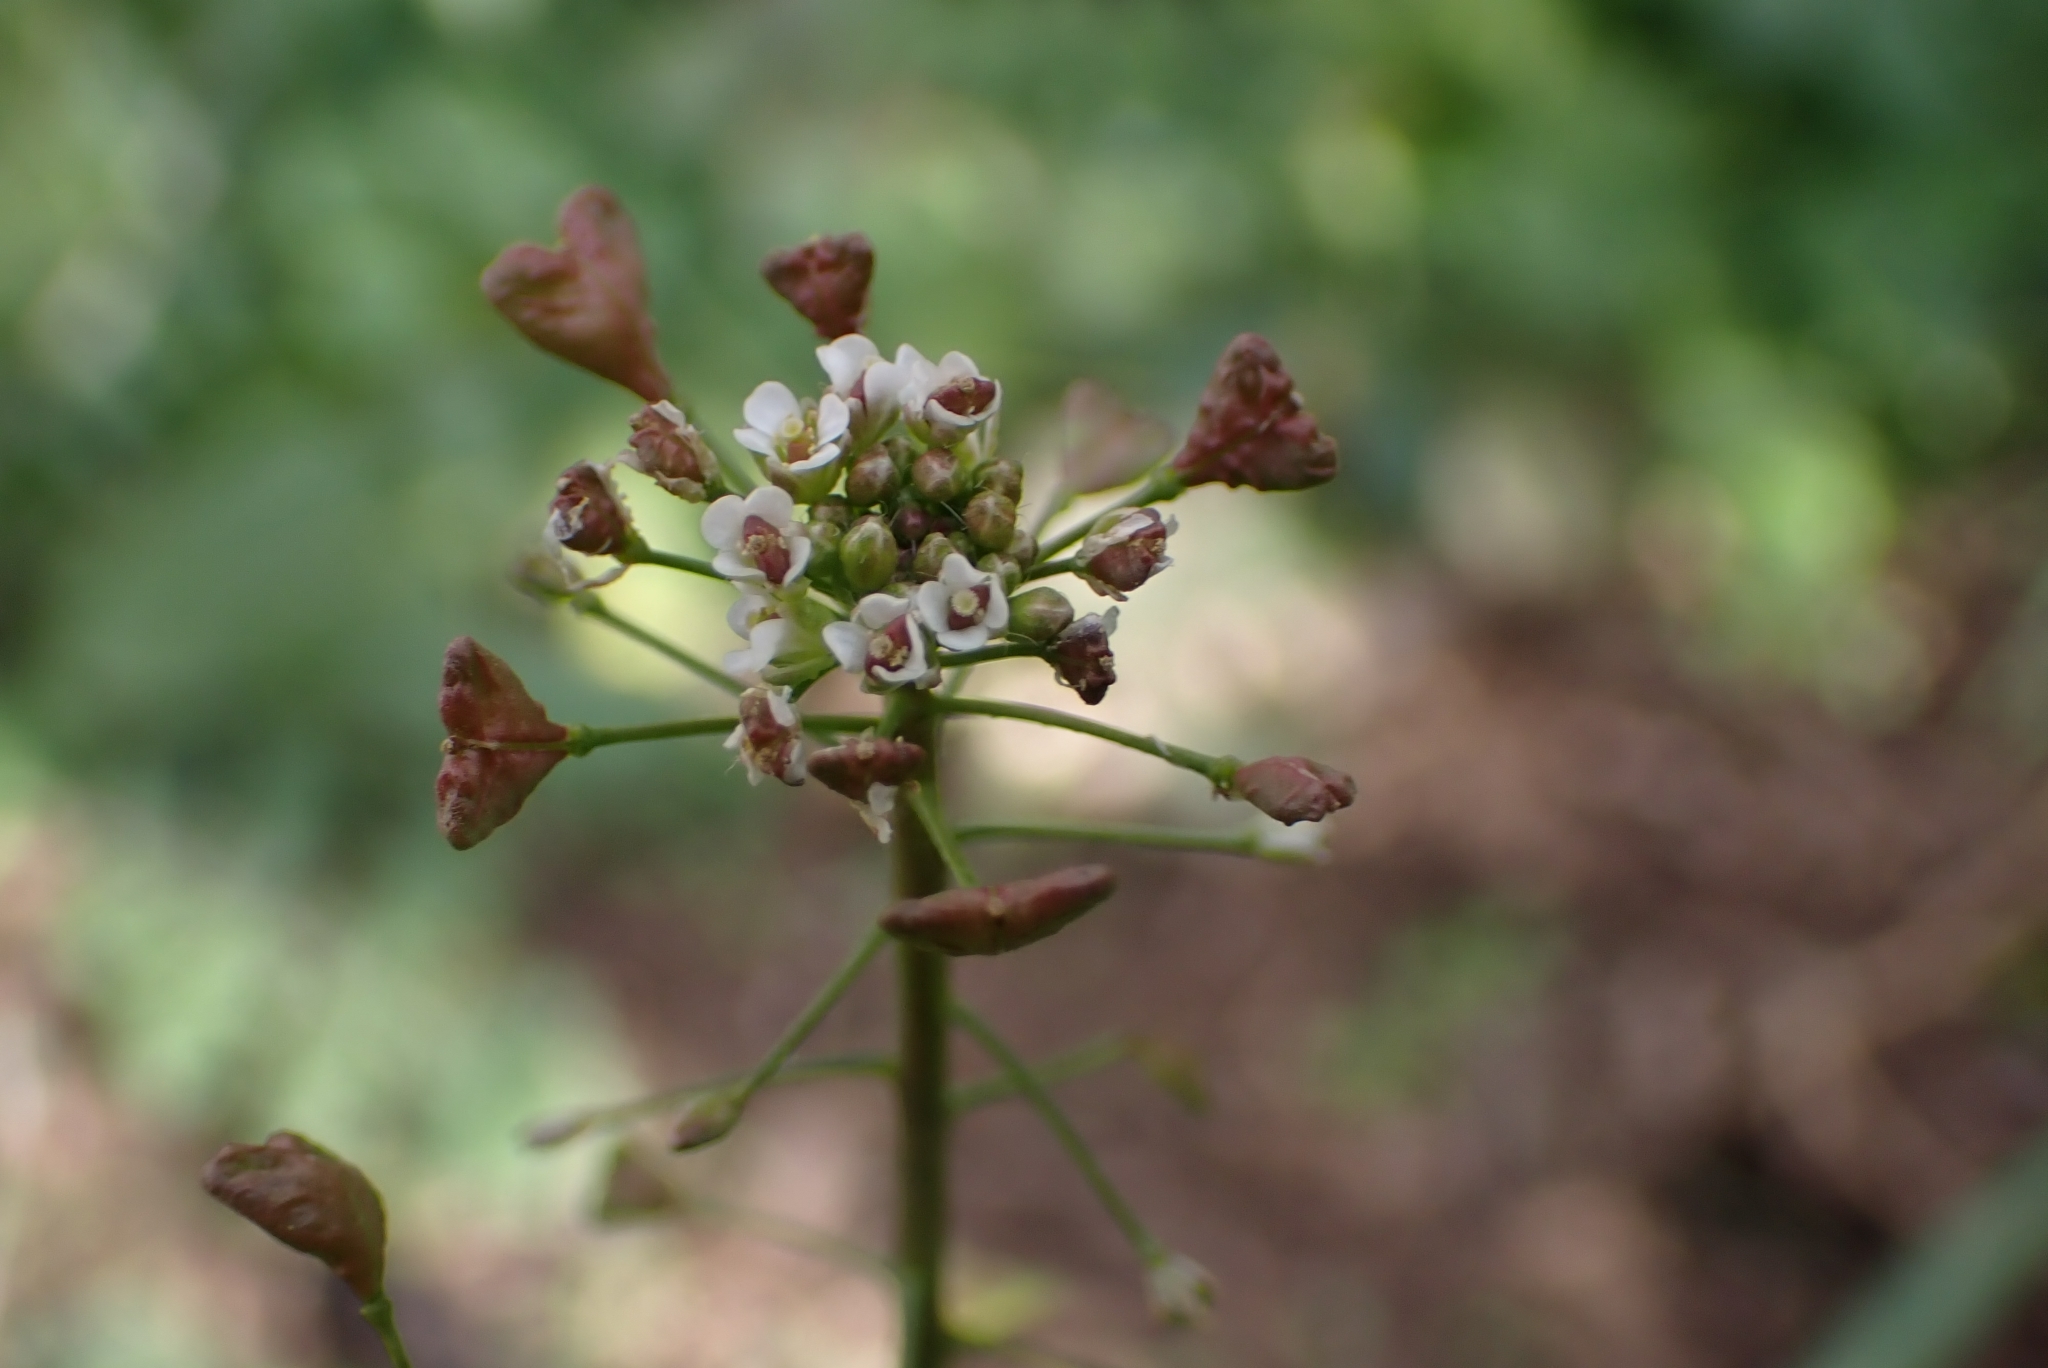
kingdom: Plantae
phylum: Tracheophyta
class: Magnoliopsida
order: Brassicales
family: Brassicaceae
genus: Capsella
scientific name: Capsella bursa-pastoris
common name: Shepherd's purse
